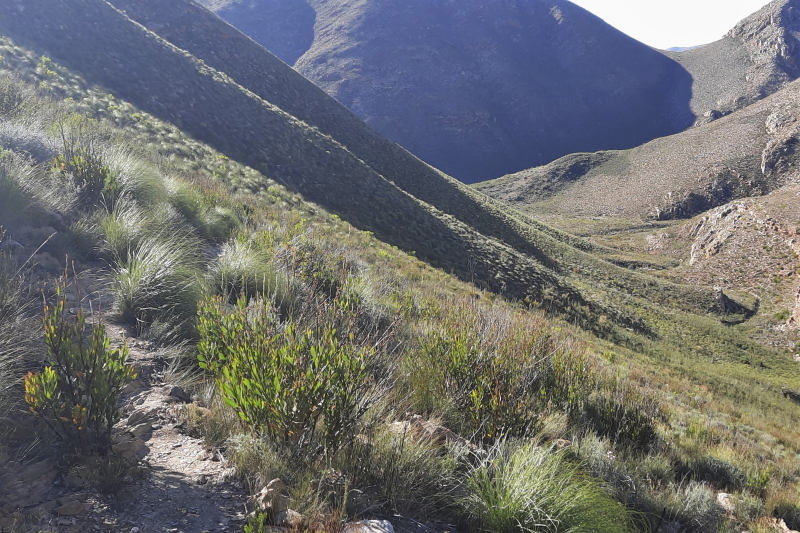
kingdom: Plantae
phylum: Tracheophyta
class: Magnoliopsida
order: Asterales
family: Asteraceae
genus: Osteospermum
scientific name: Osteospermum junceum
